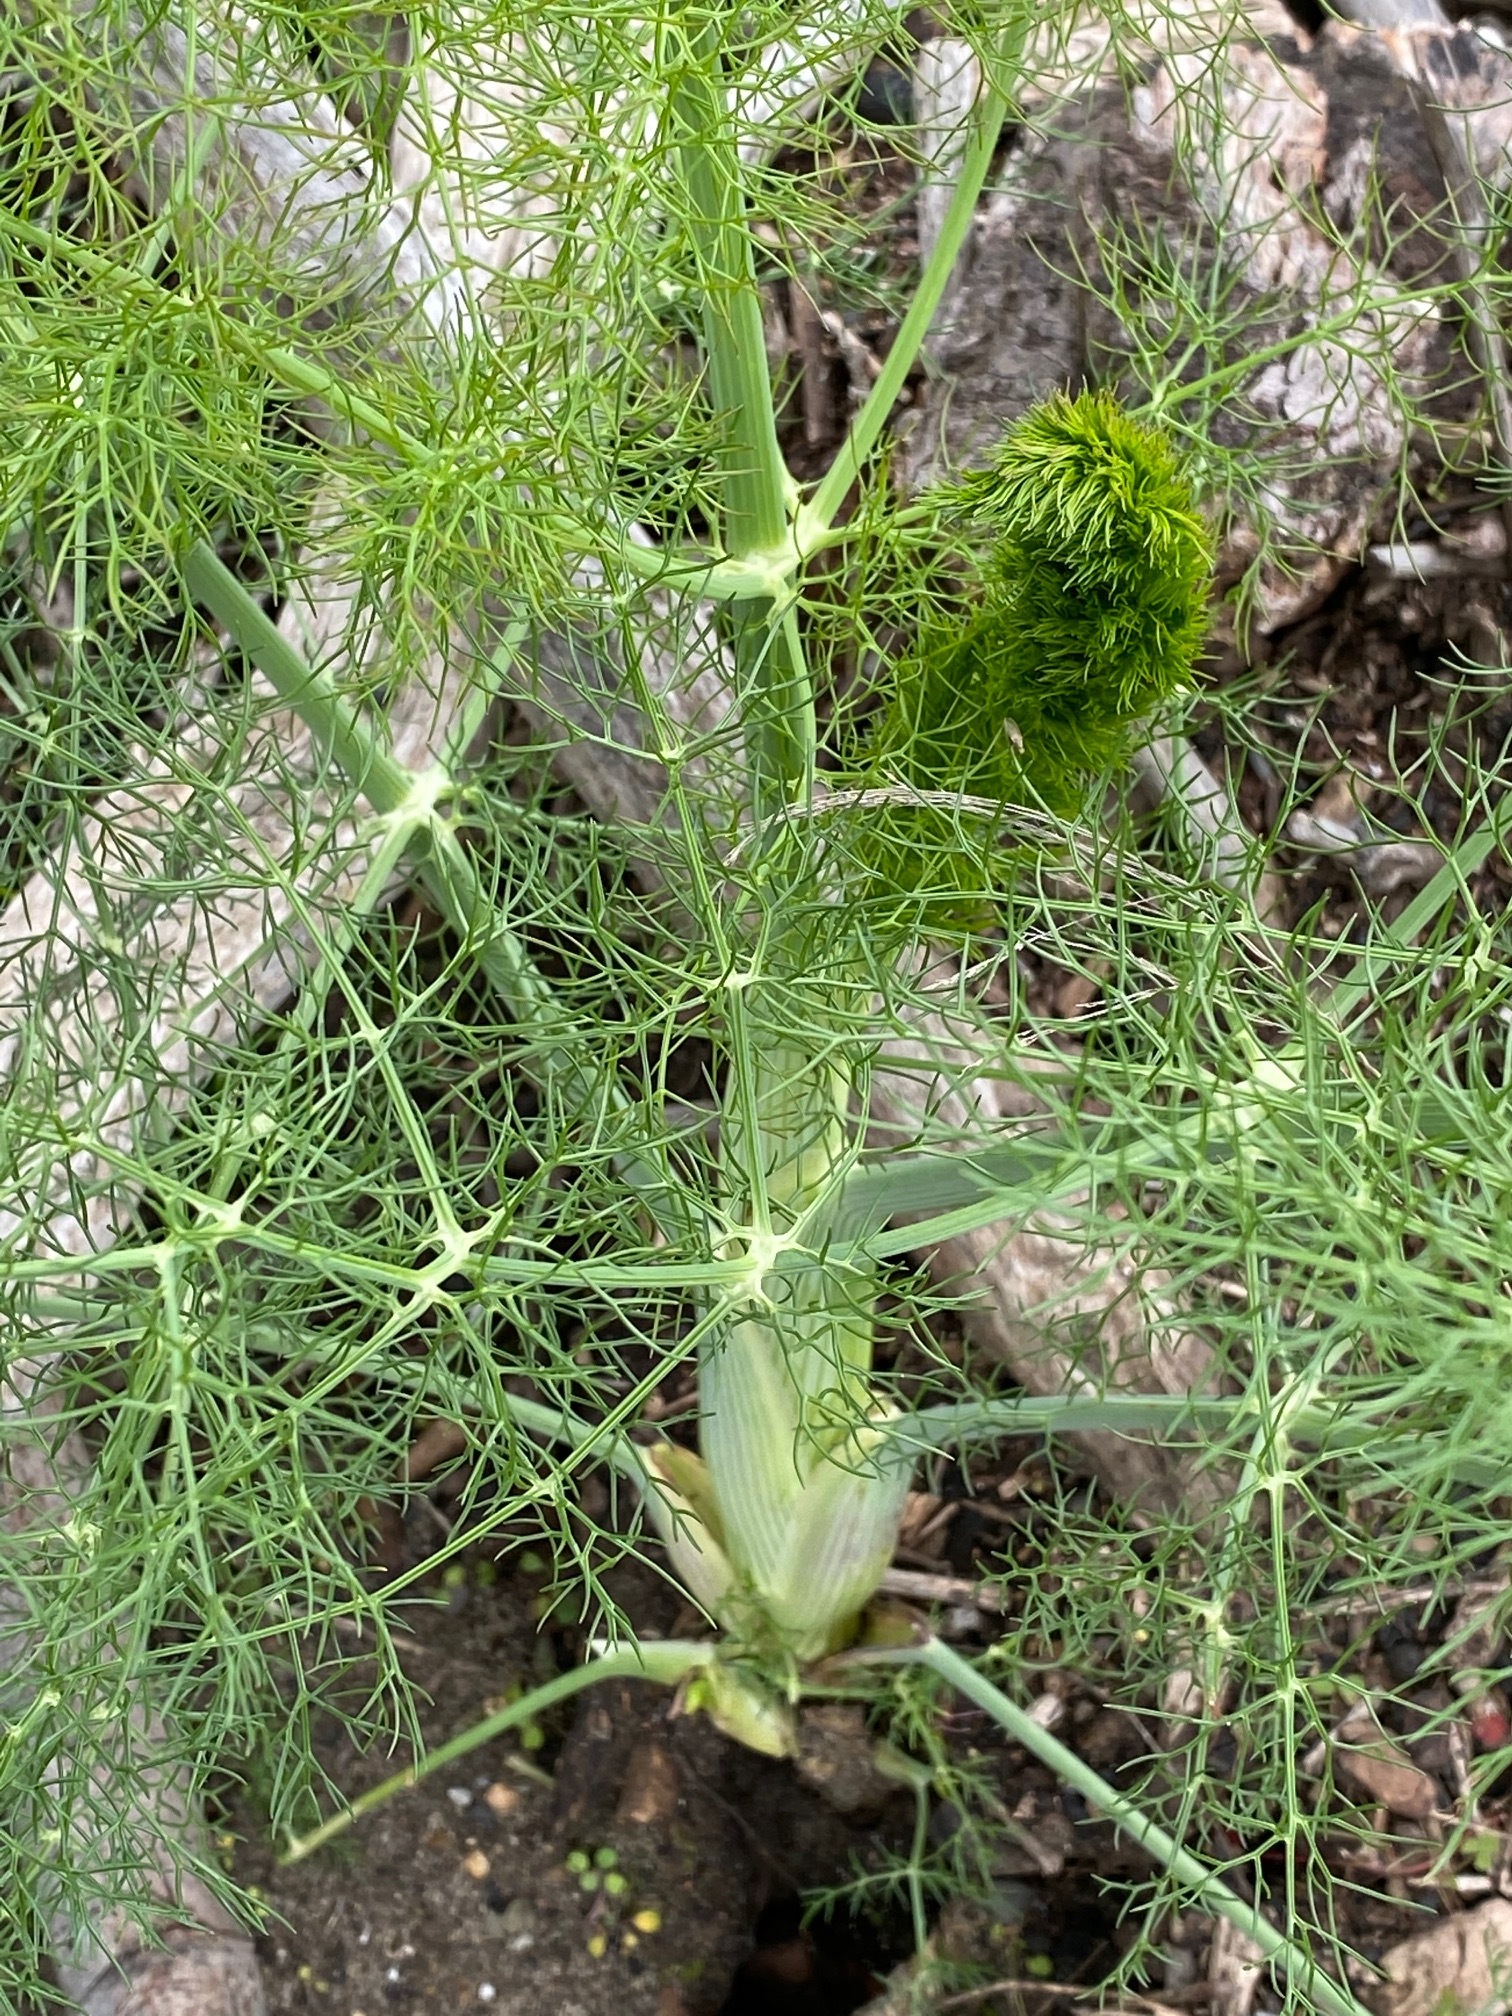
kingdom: Plantae
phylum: Tracheophyta
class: Magnoliopsida
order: Apiales
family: Apiaceae
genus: Foeniculum
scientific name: Foeniculum vulgare
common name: Fennel
